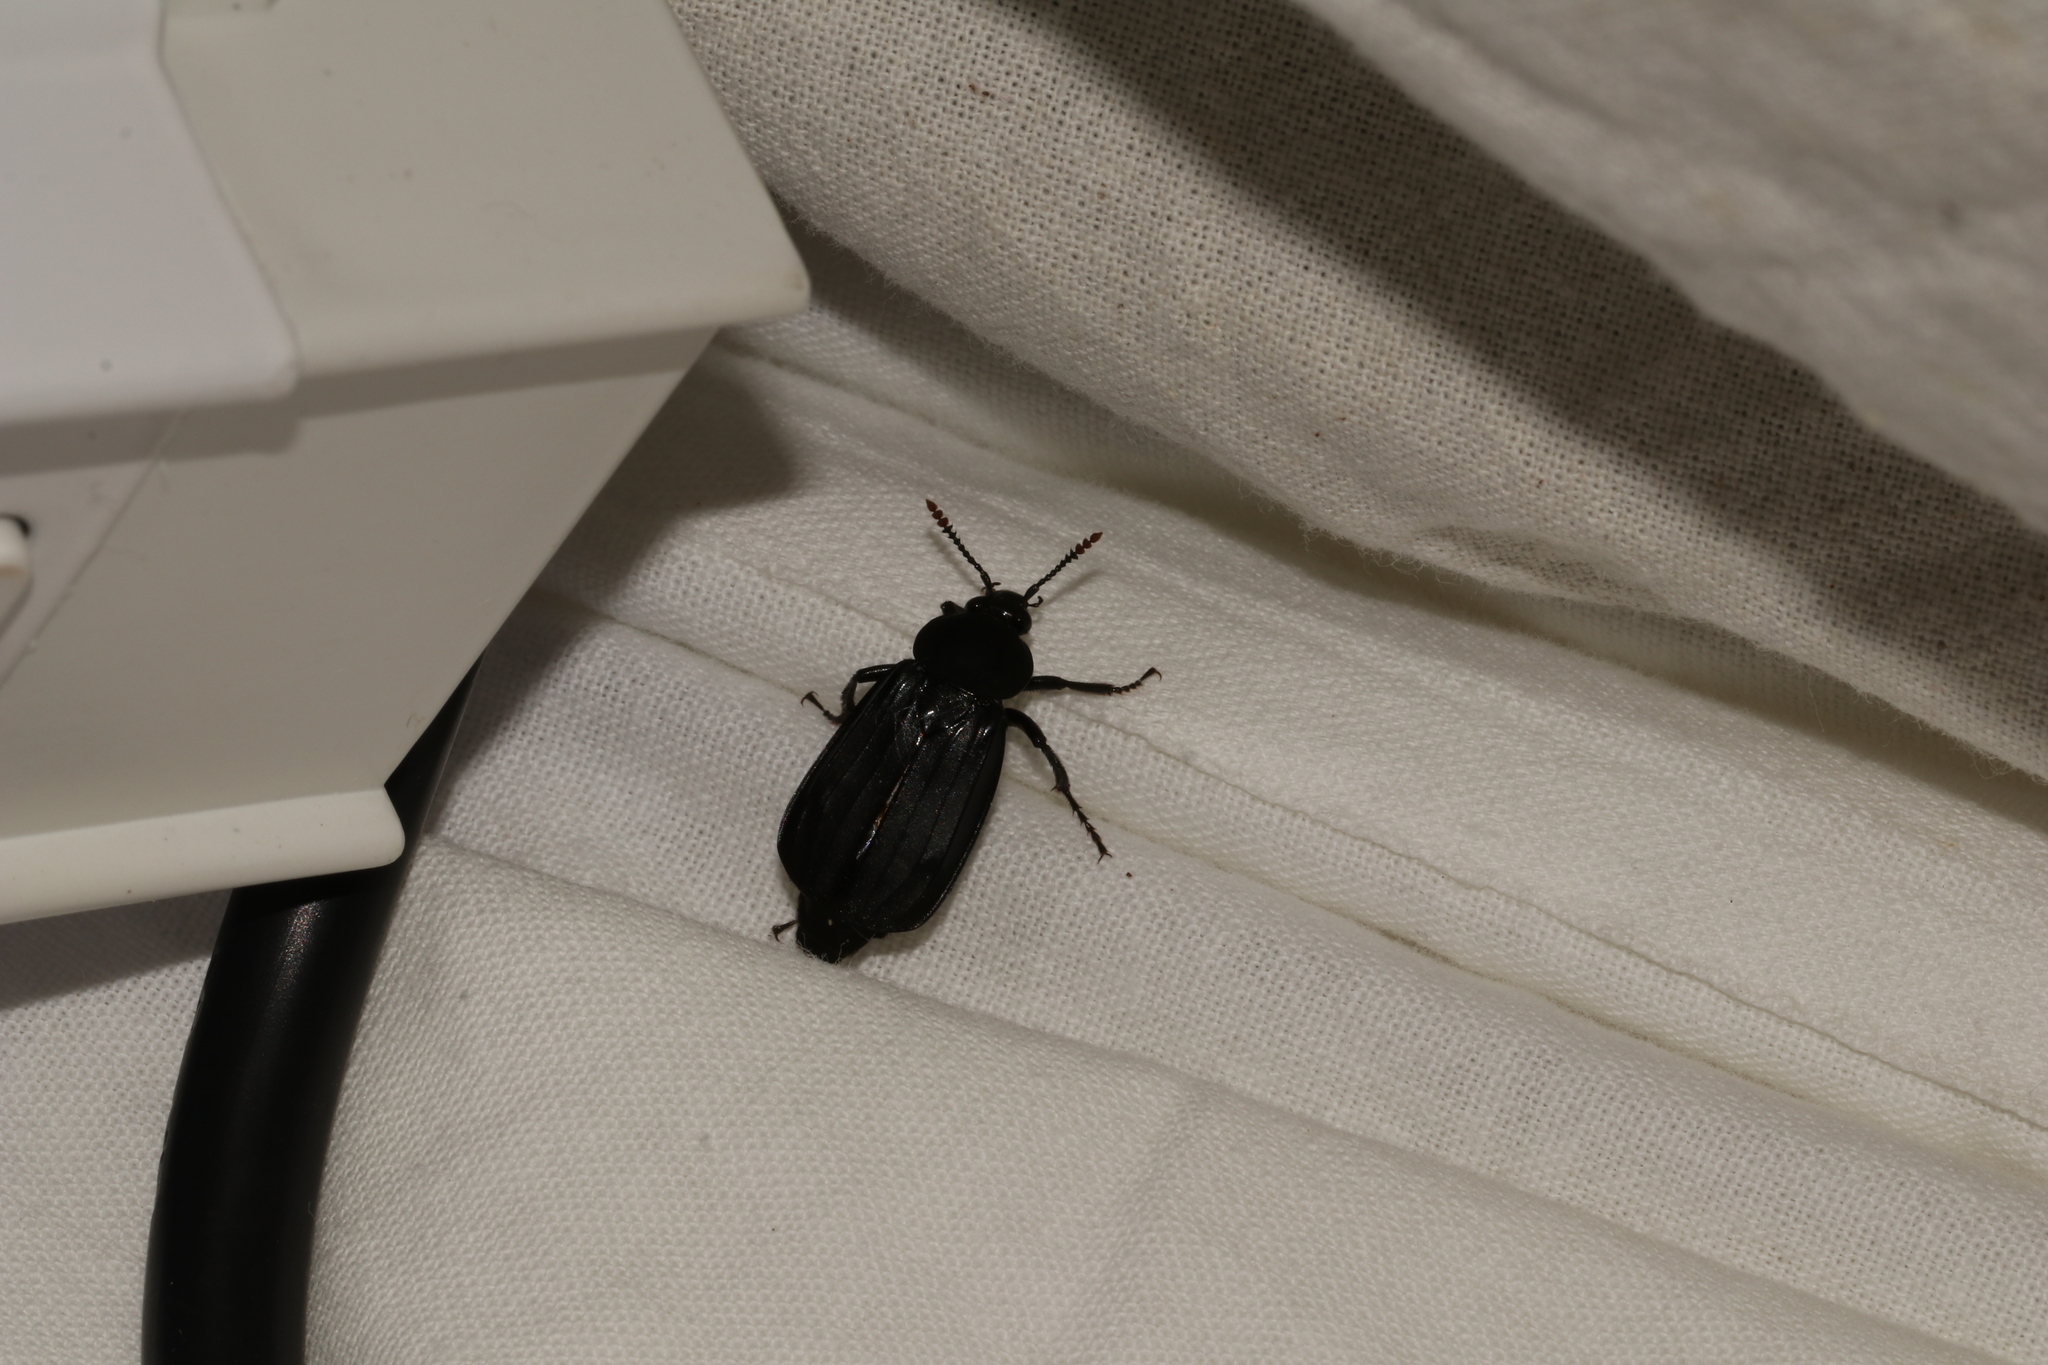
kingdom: Animalia
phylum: Arthropoda
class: Insecta
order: Coleoptera
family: Staphylinidae
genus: Necrodes
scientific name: Necrodes littoralis
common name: Shore sexton beetle
